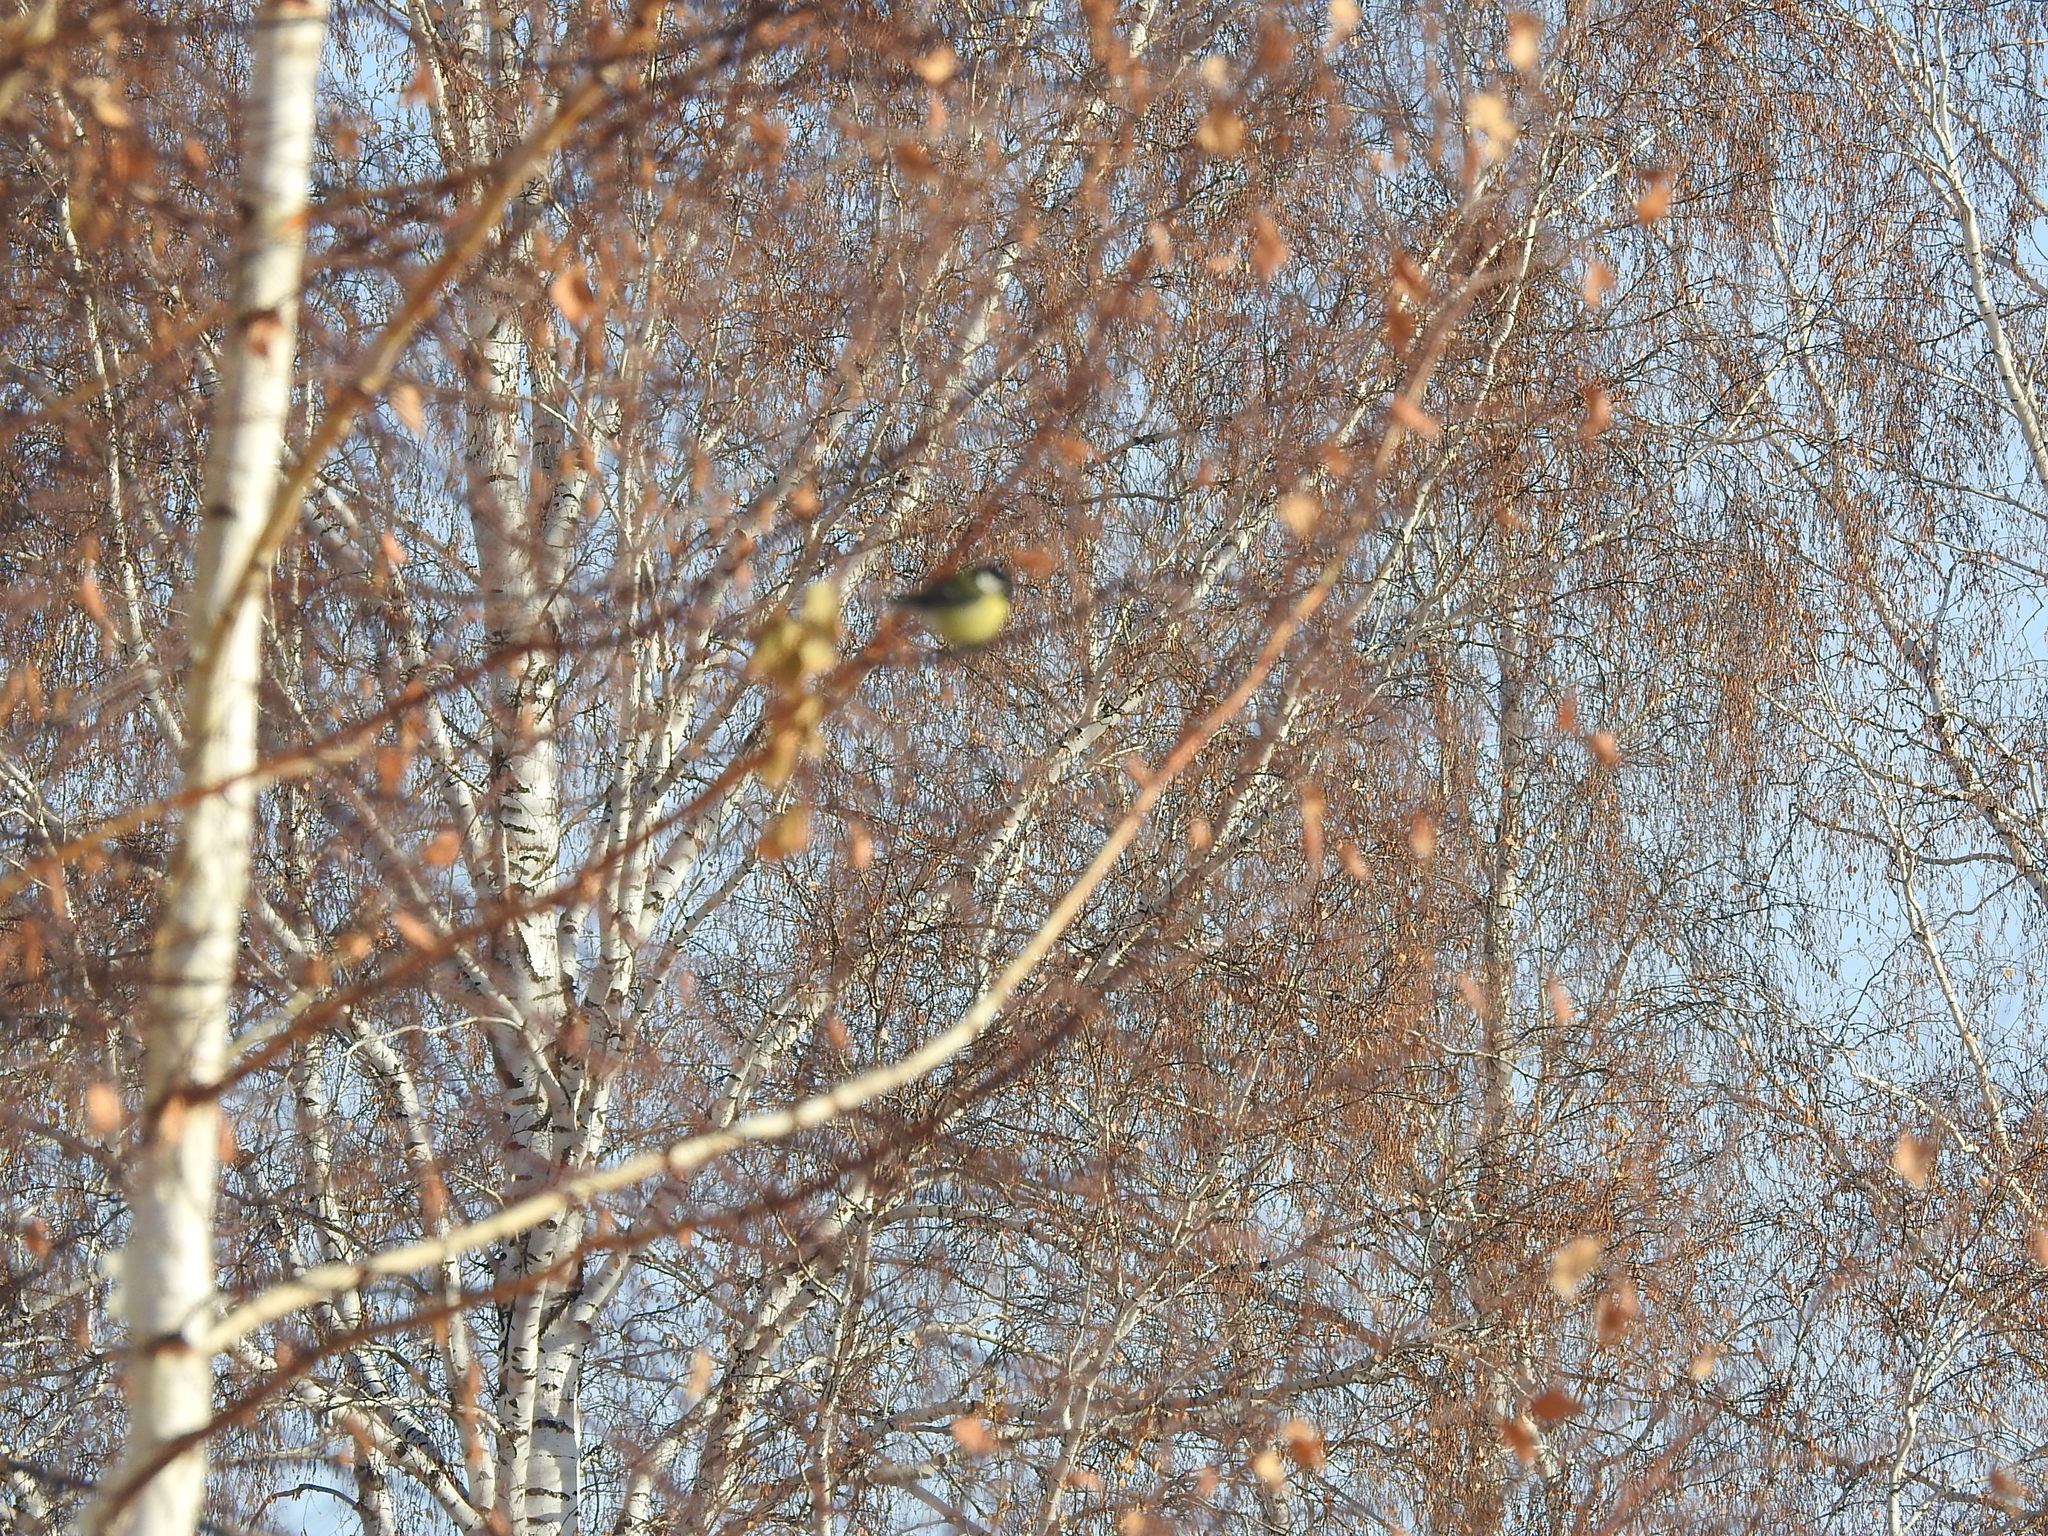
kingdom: Animalia
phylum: Chordata
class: Aves
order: Passeriformes
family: Paridae
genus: Parus
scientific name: Parus major
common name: Great tit
